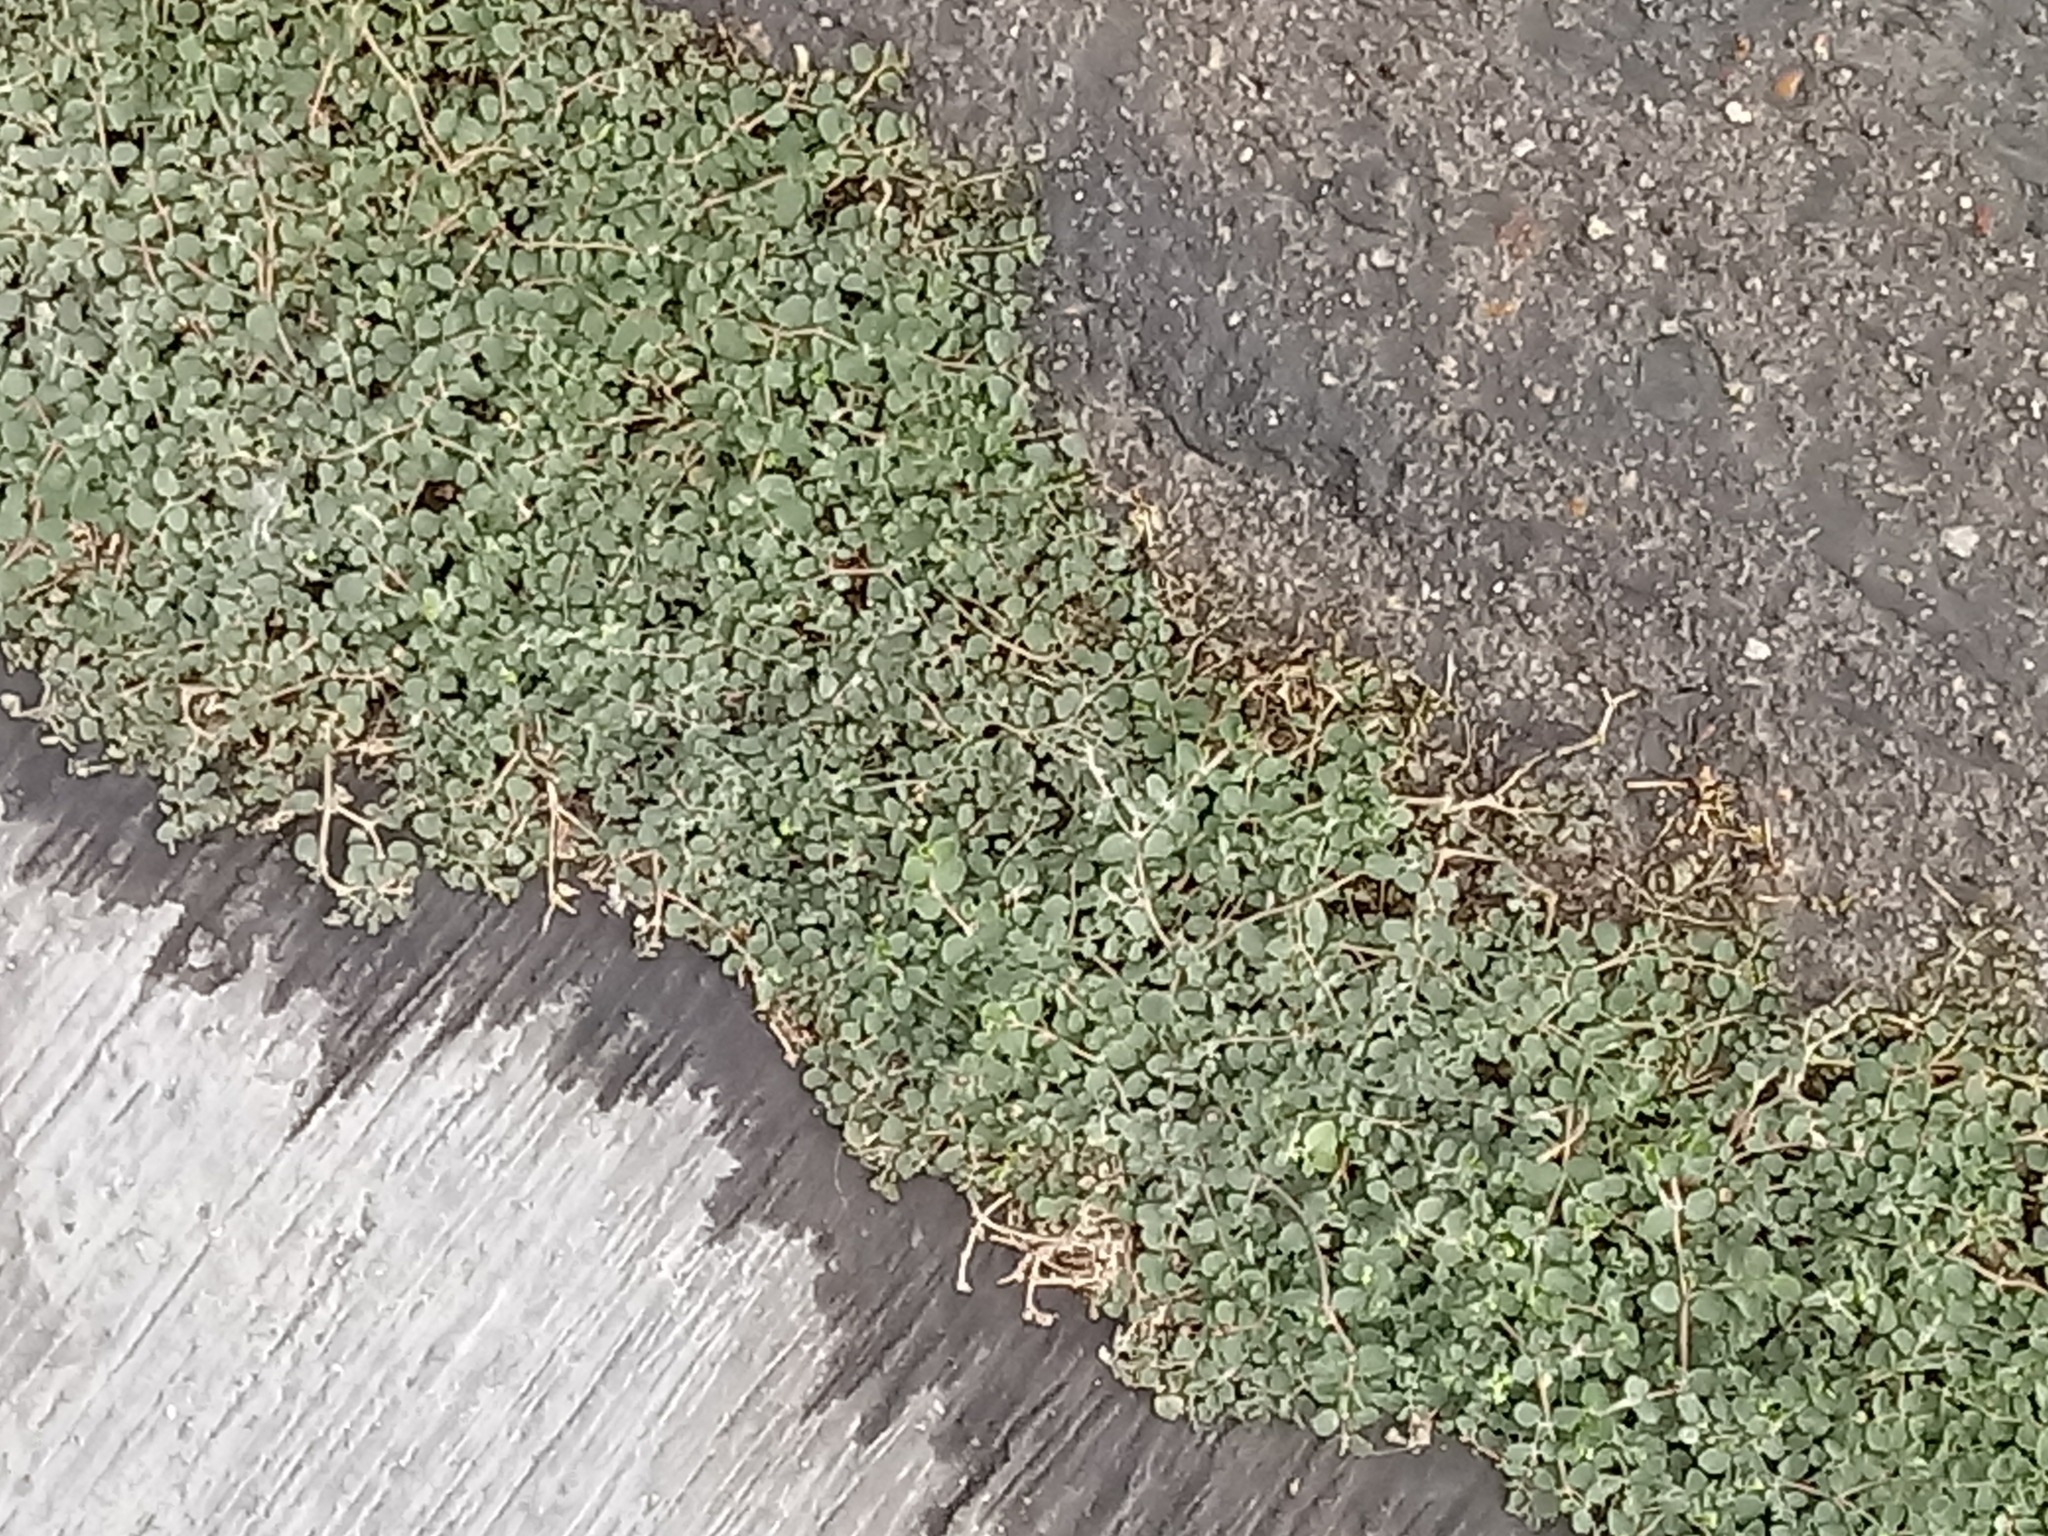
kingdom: Plantae
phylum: Tracheophyta
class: Magnoliopsida
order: Malpighiales
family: Euphorbiaceae
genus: Euphorbia
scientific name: Euphorbia serpens
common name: Matted sandmat
